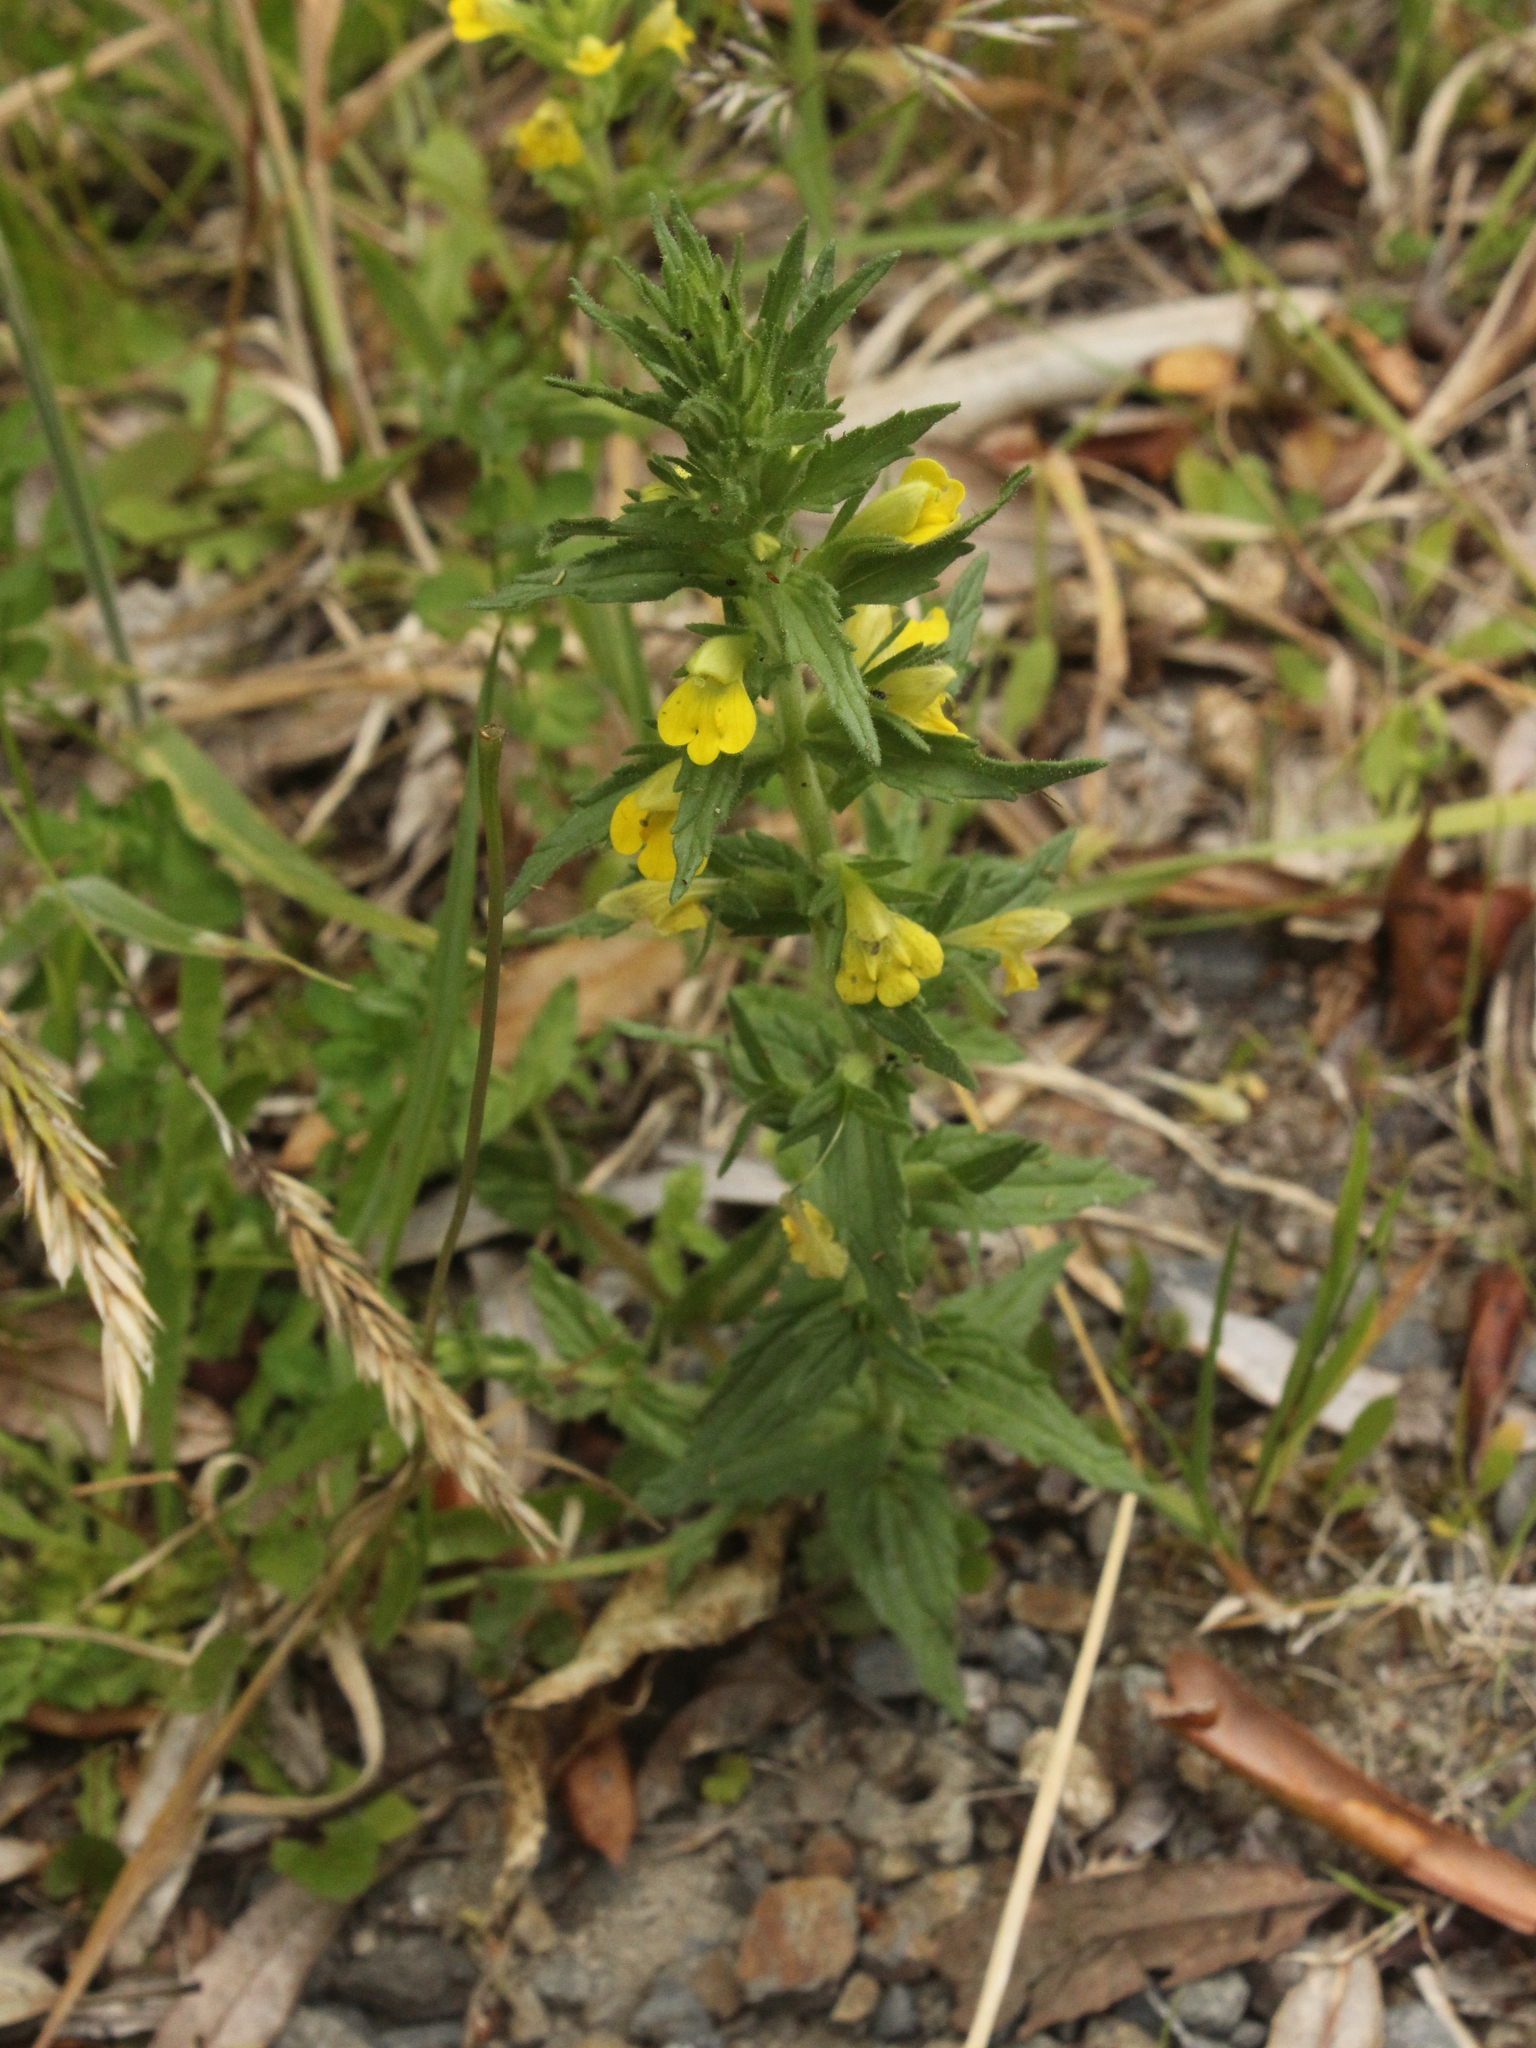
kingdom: Plantae
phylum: Tracheophyta
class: Magnoliopsida
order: Lamiales
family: Orobanchaceae
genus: Bellardia
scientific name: Bellardia viscosa
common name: Sticky parentucellia
